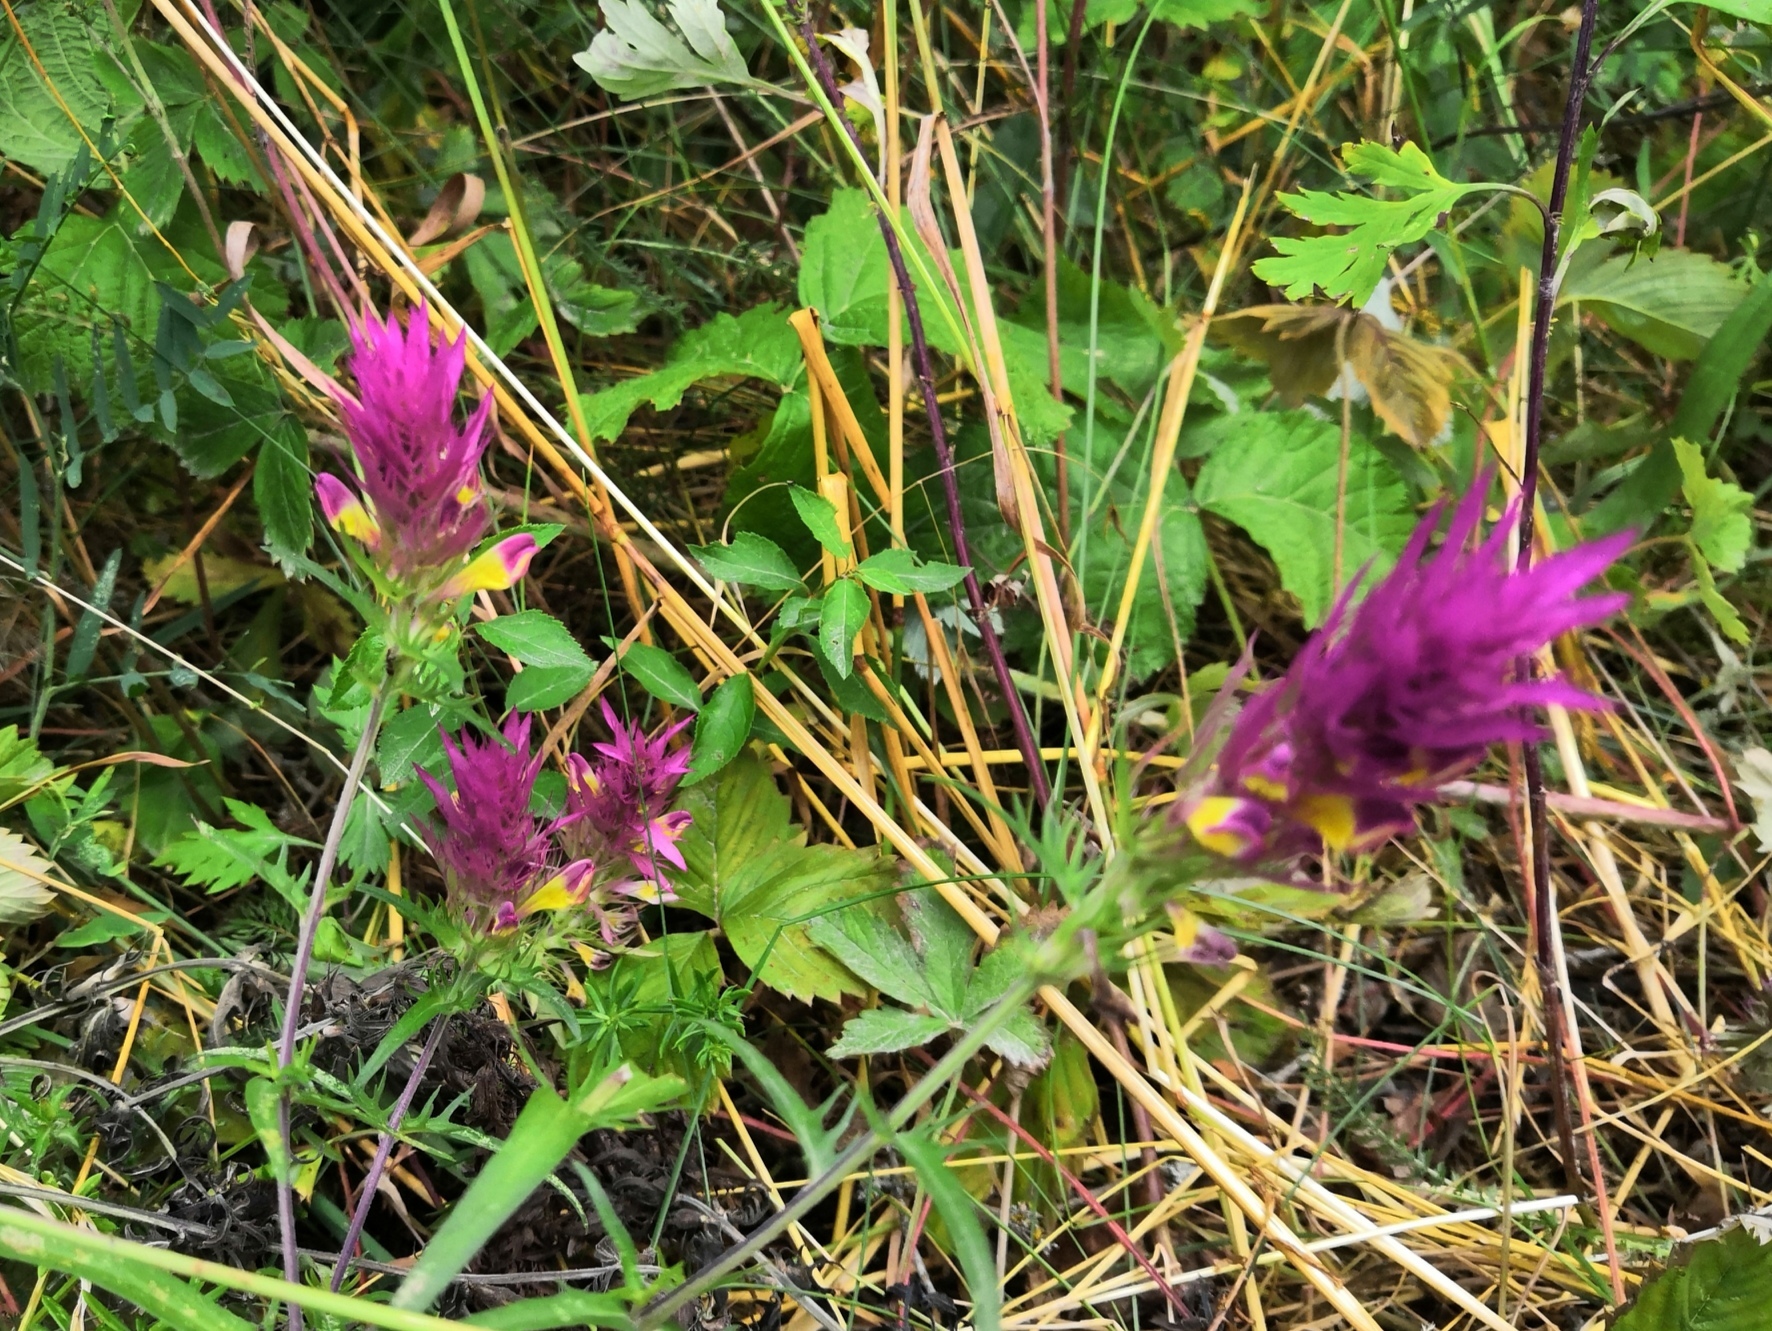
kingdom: Plantae
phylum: Tracheophyta
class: Magnoliopsida
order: Lamiales
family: Orobanchaceae
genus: Melampyrum
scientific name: Melampyrum arvense
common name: Field cow-wheat
